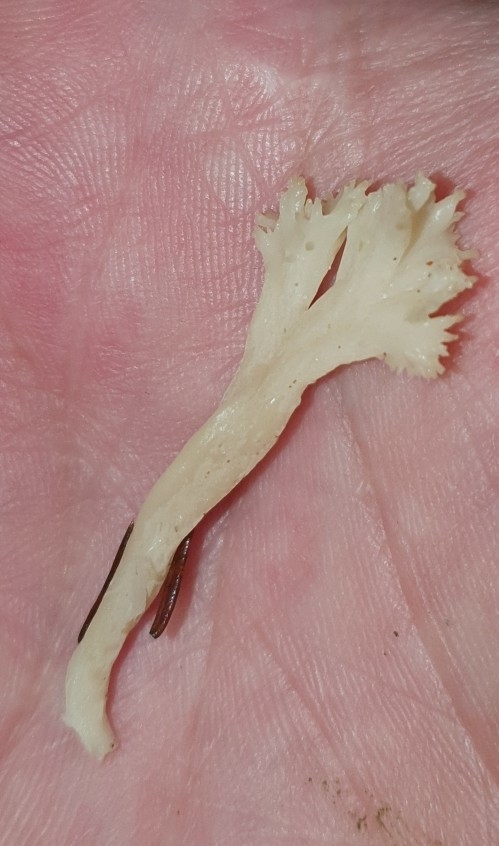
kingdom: Fungi
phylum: Basidiomycota
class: Agaricomycetes
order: Cantharellales
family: Hydnaceae
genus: Clavulina
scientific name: Clavulina coralloides
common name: Crested coral
